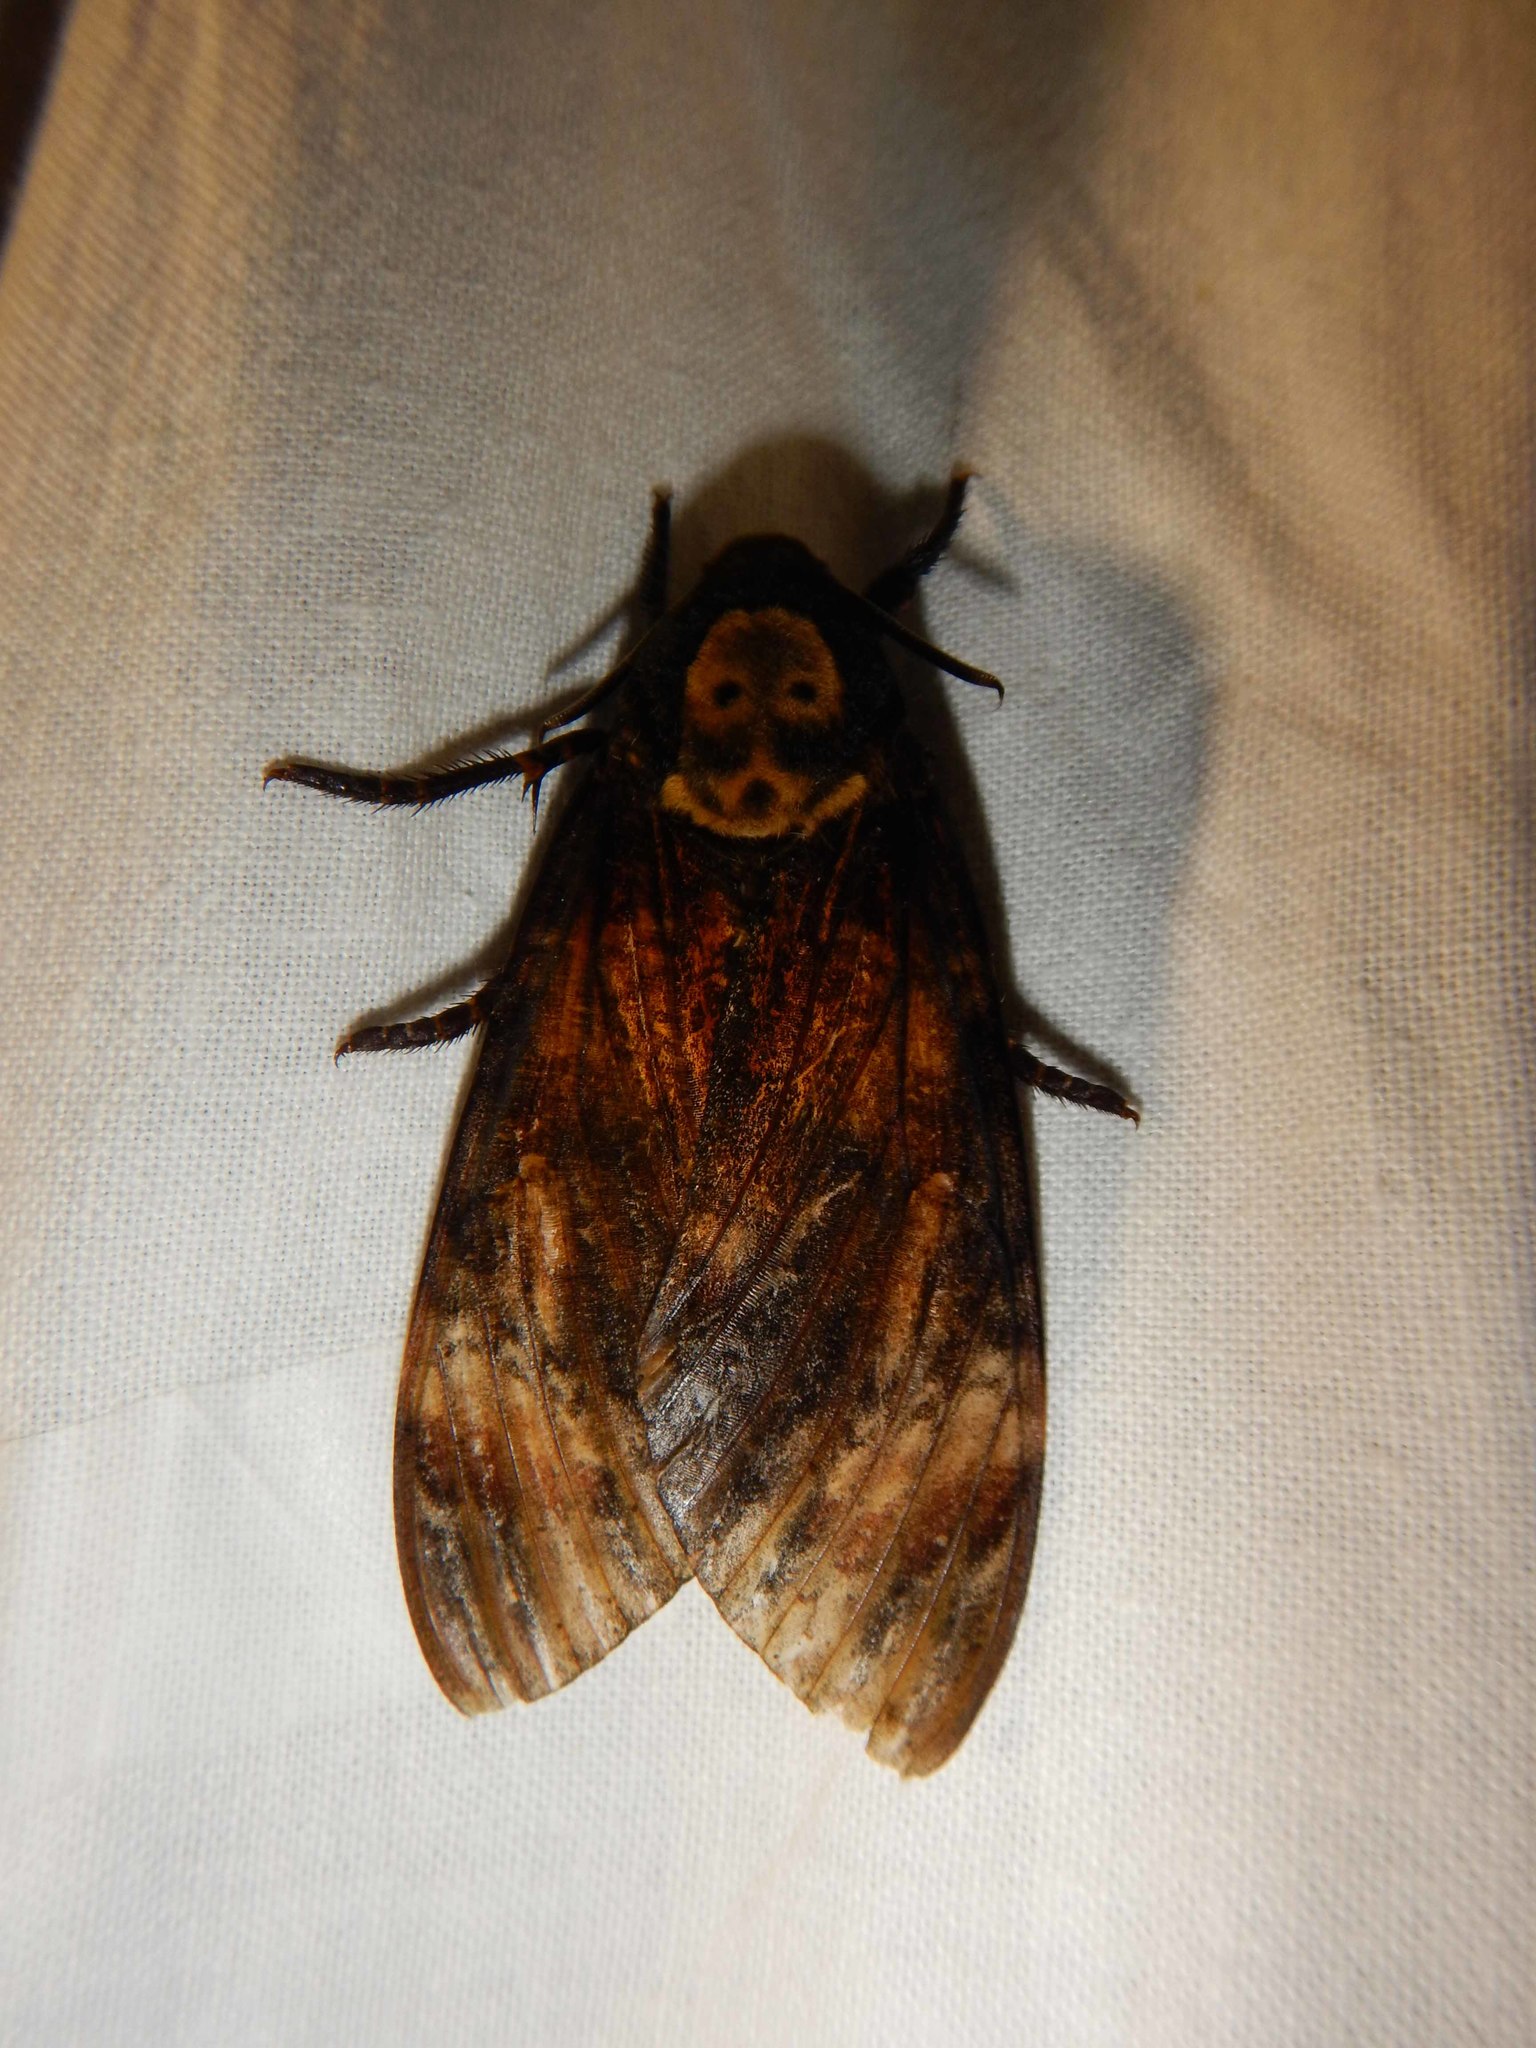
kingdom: Animalia
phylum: Arthropoda
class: Insecta
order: Lepidoptera
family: Sphingidae
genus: Acherontia
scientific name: Acherontia atropos
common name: Death's-head hawk moth
